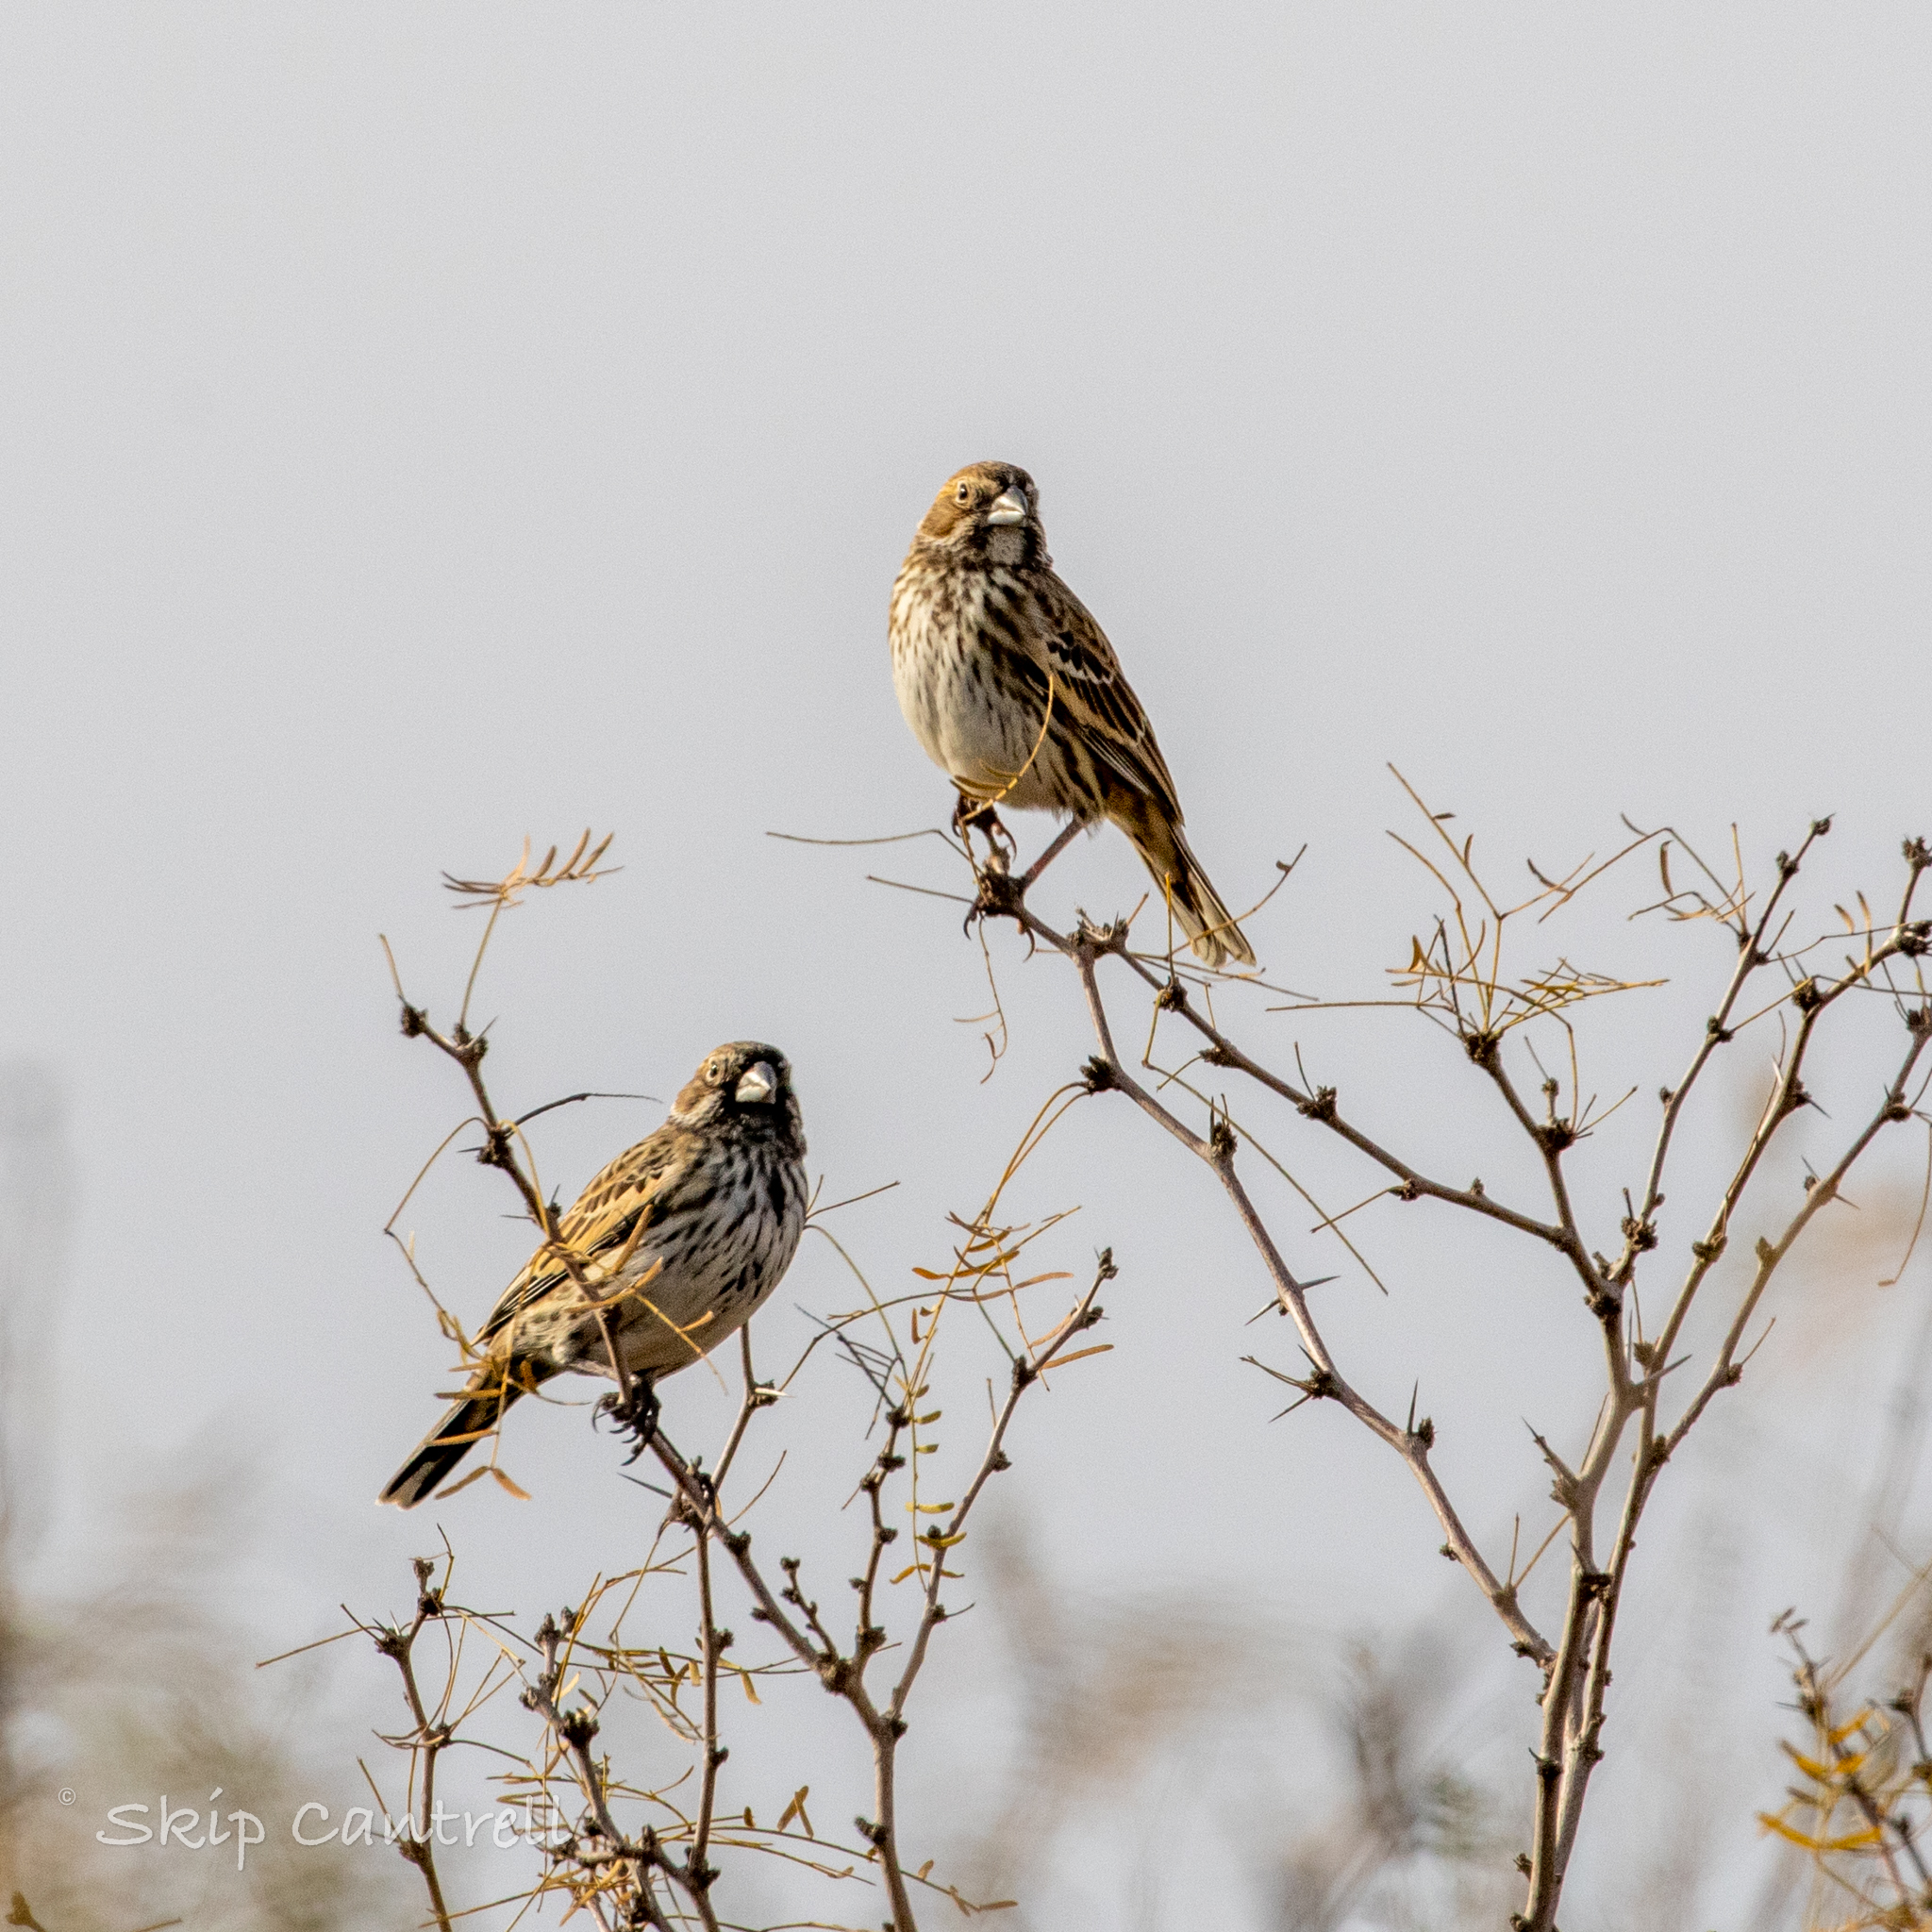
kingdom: Animalia
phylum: Chordata
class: Aves
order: Passeriformes
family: Passerellidae
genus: Calamospiza
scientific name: Calamospiza melanocorys
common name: Lark bunting
